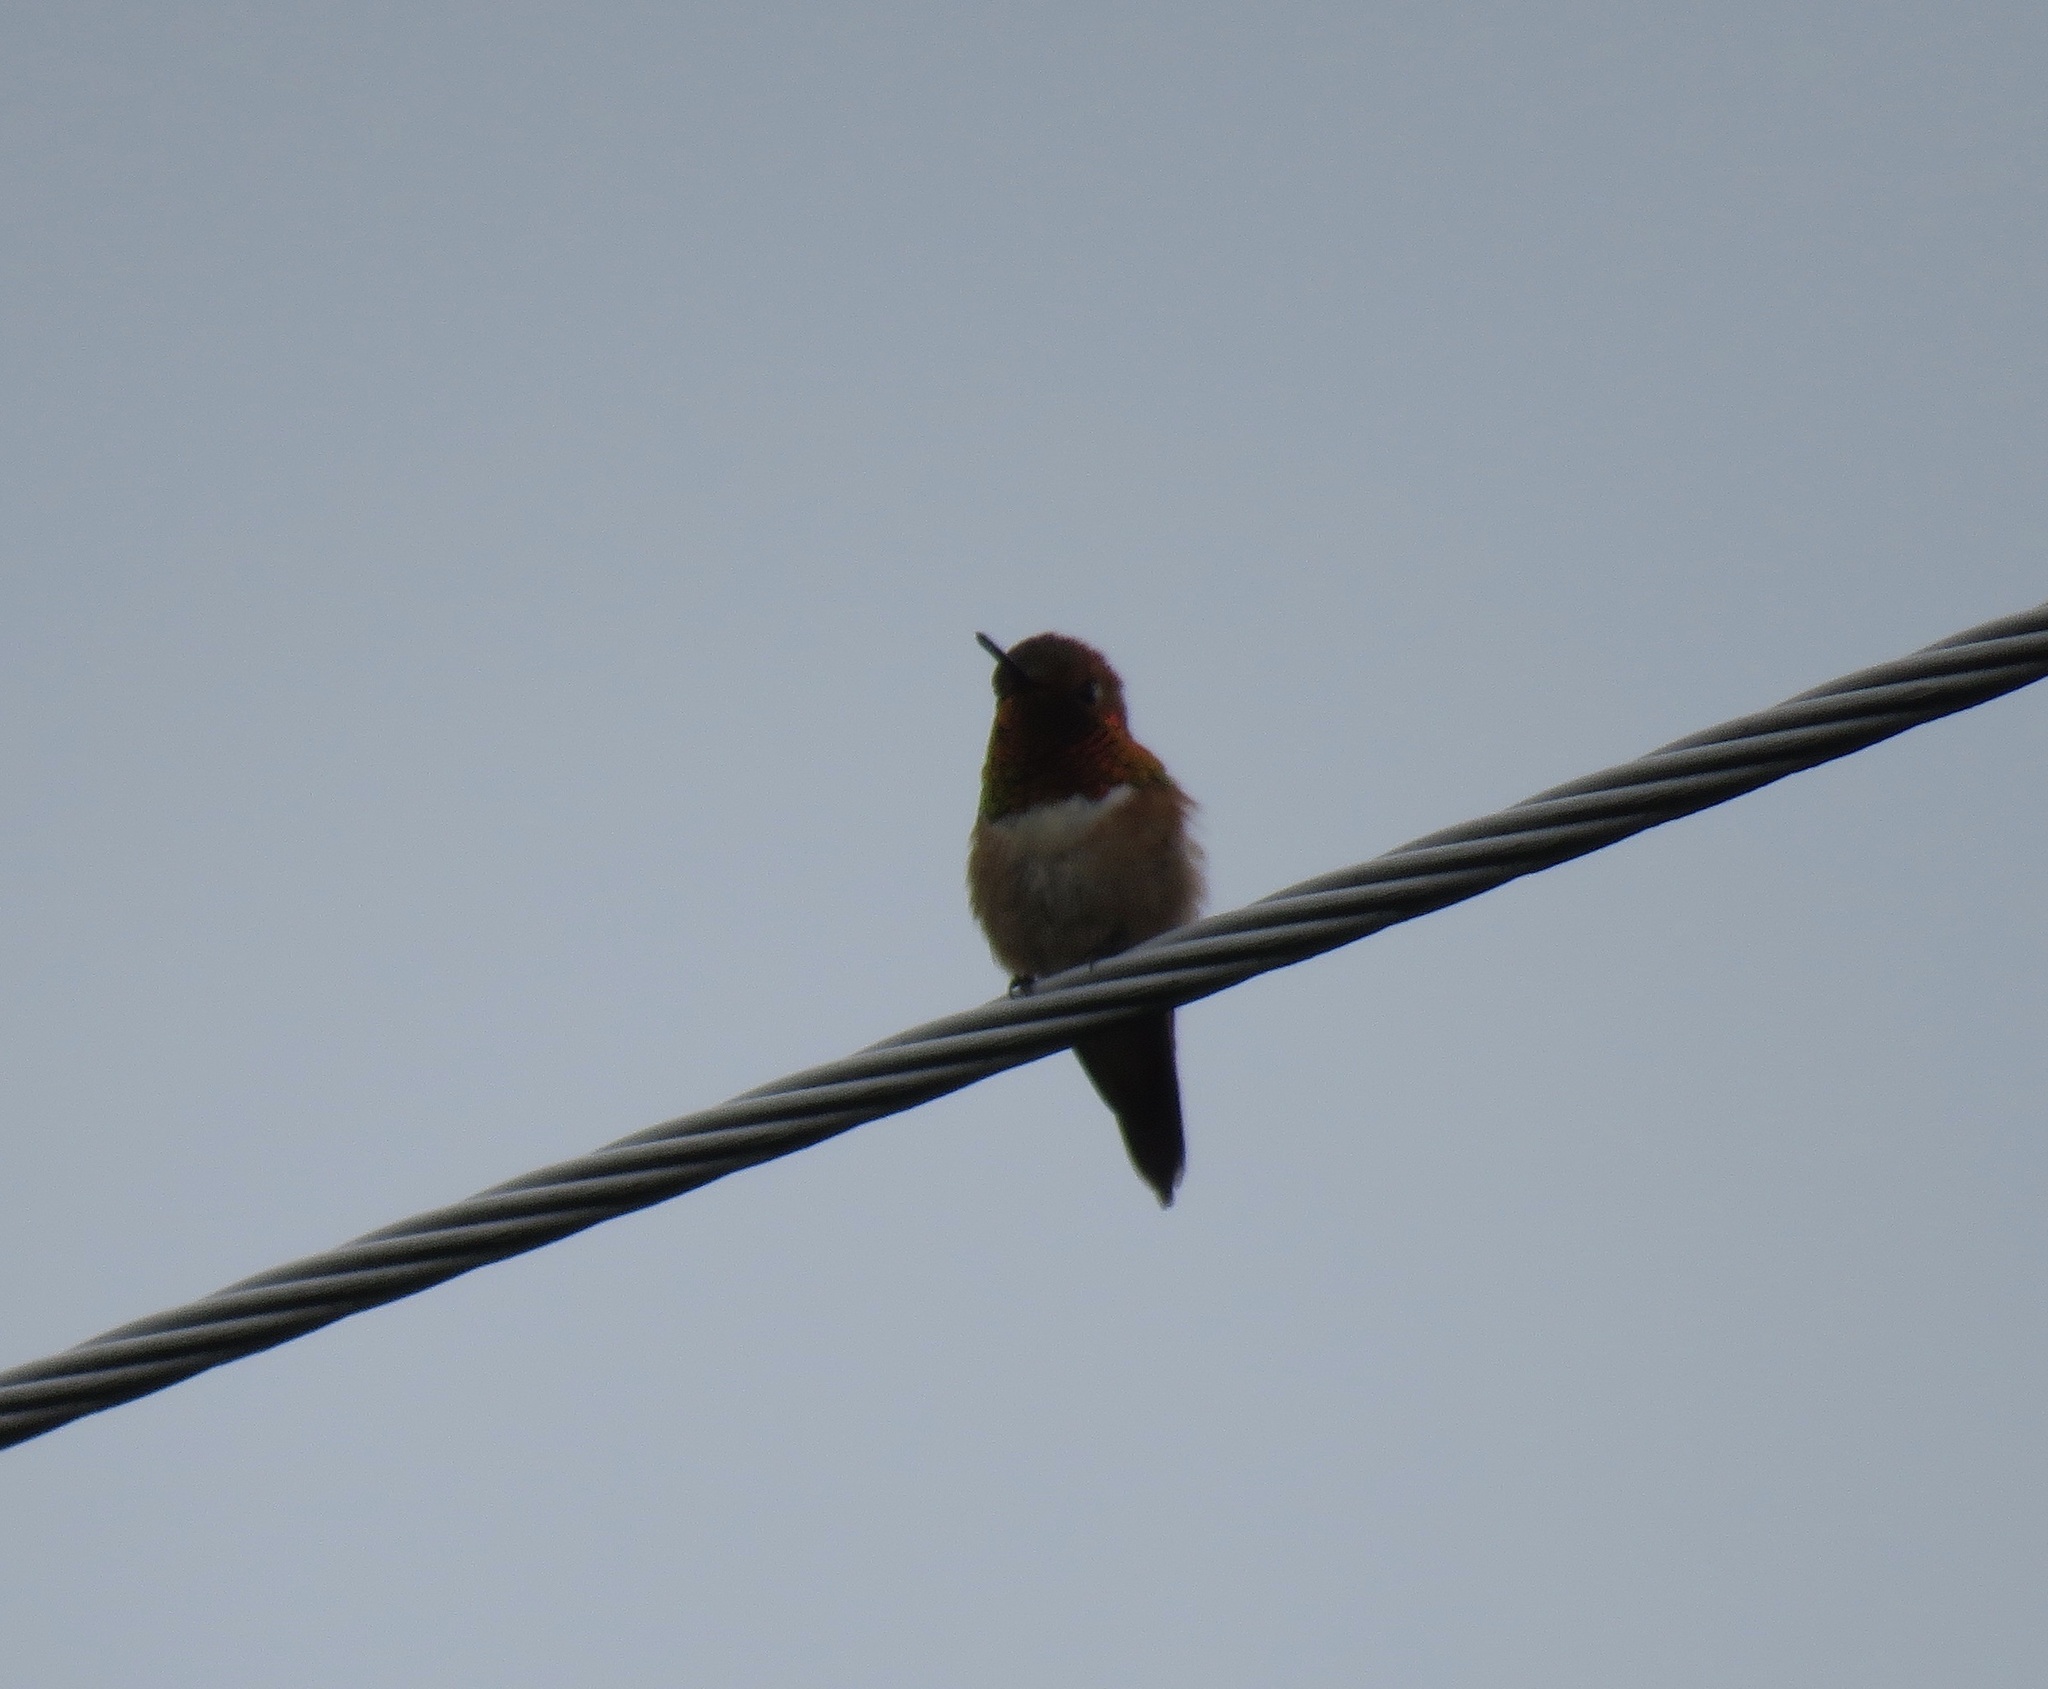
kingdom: Animalia
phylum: Chordata
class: Aves
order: Apodiformes
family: Trochilidae
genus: Selasphorus
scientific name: Selasphorus rufus
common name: Rufous hummingbird
